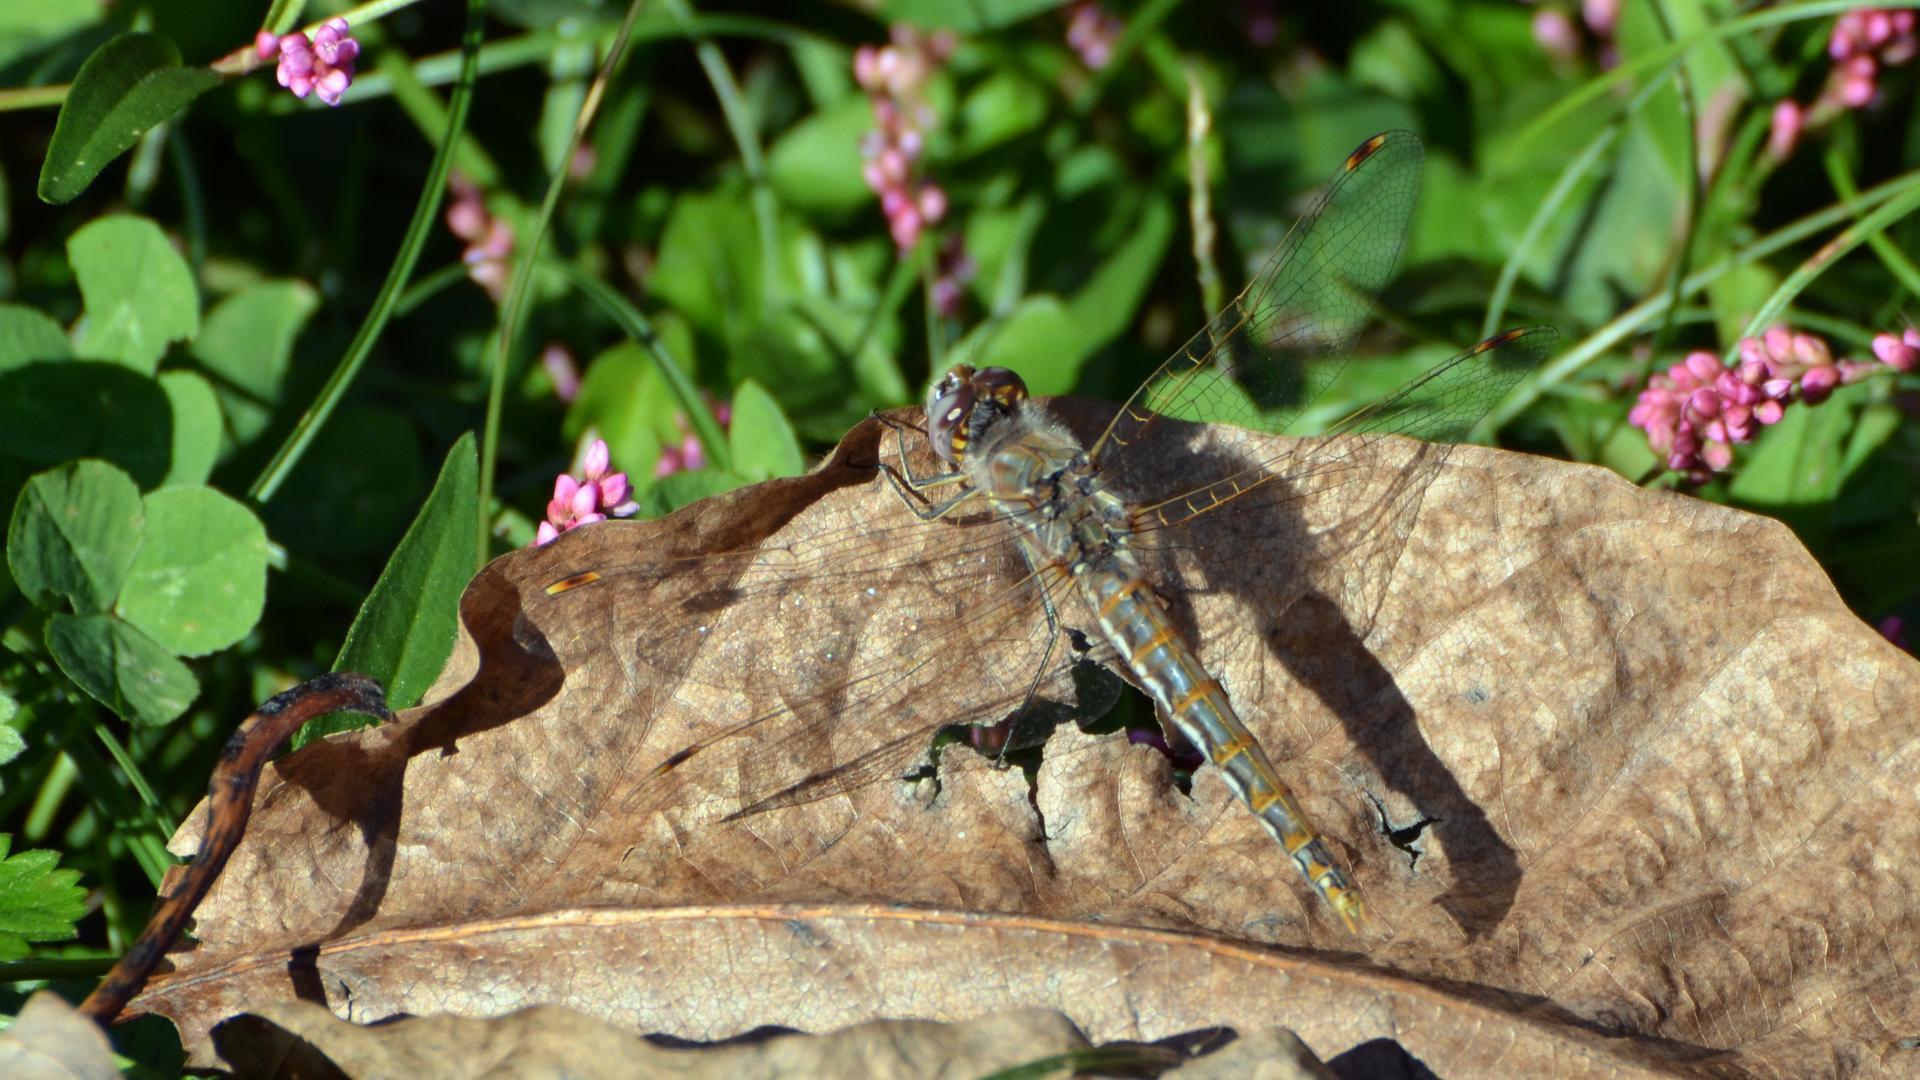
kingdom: Animalia
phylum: Arthropoda
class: Insecta
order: Odonata
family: Libellulidae
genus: Sympetrum
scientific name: Sympetrum corruptum
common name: Variegated meadowhawk
